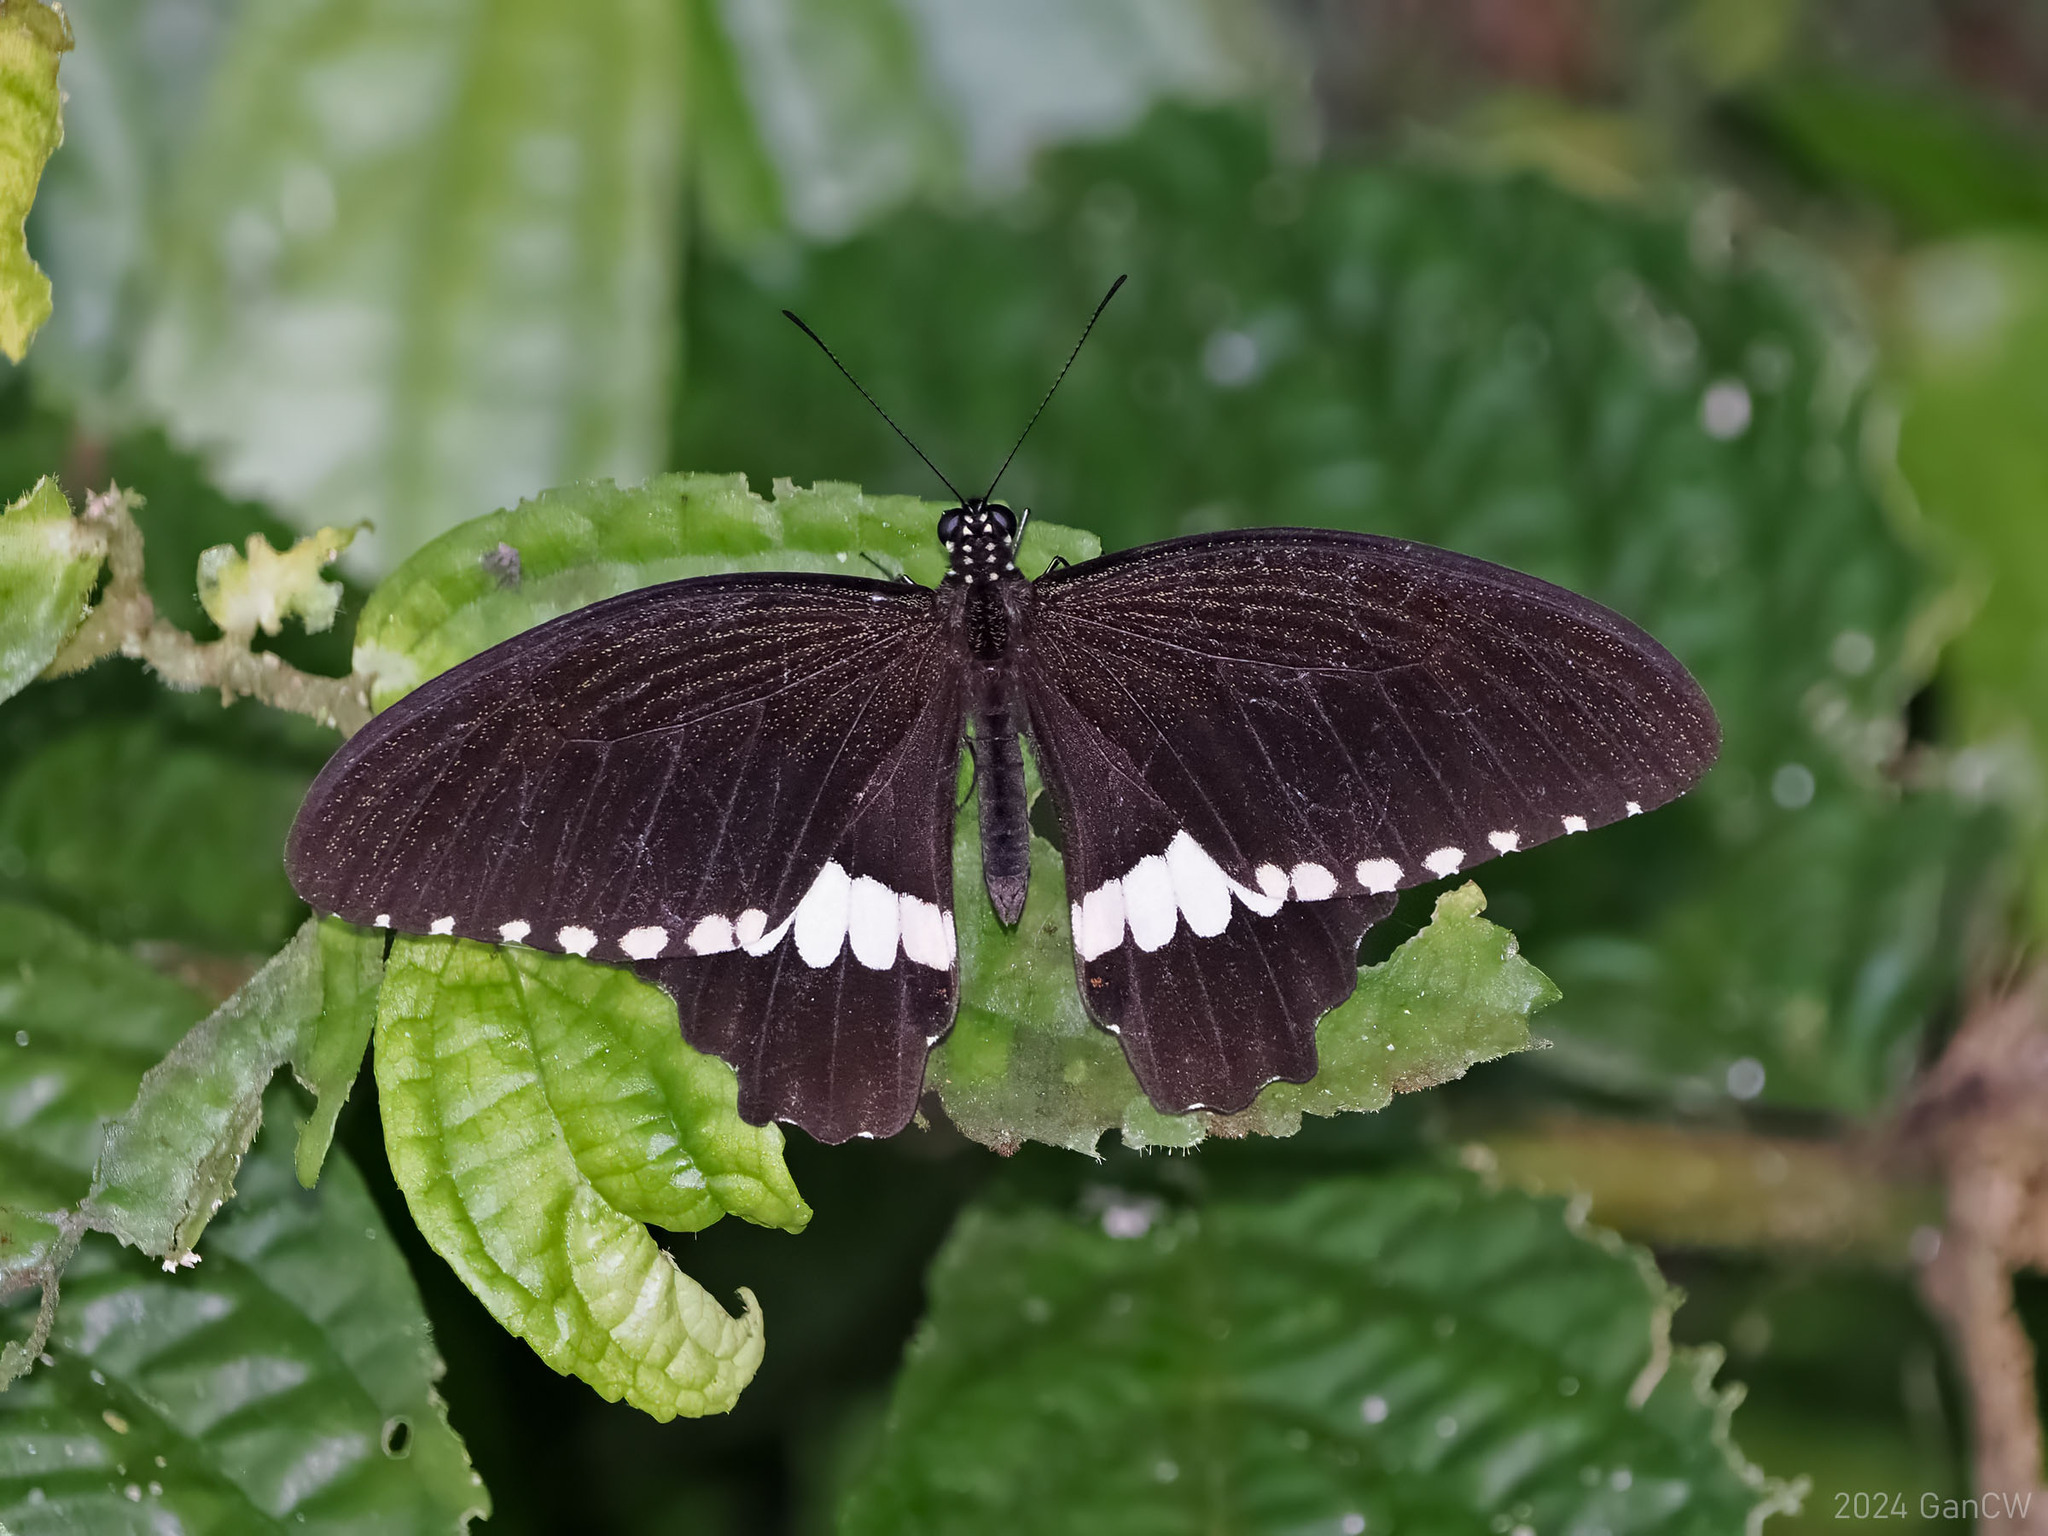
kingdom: Animalia
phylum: Arthropoda
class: Insecta
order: Lepidoptera
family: Papilionidae
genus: Papilio
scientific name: Papilio alphenor
